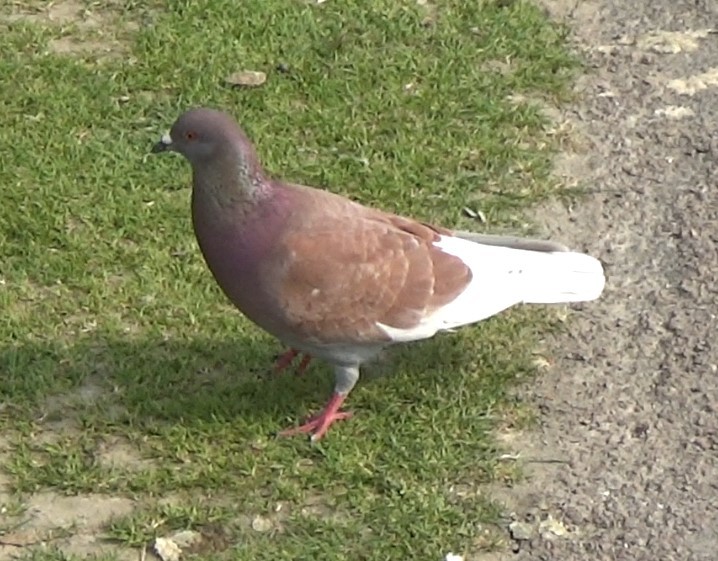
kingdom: Animalia
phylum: Chordata
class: Aves
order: Columbiformes
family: Columbidae
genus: Columba
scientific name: Columba livia
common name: Rock pigeon
